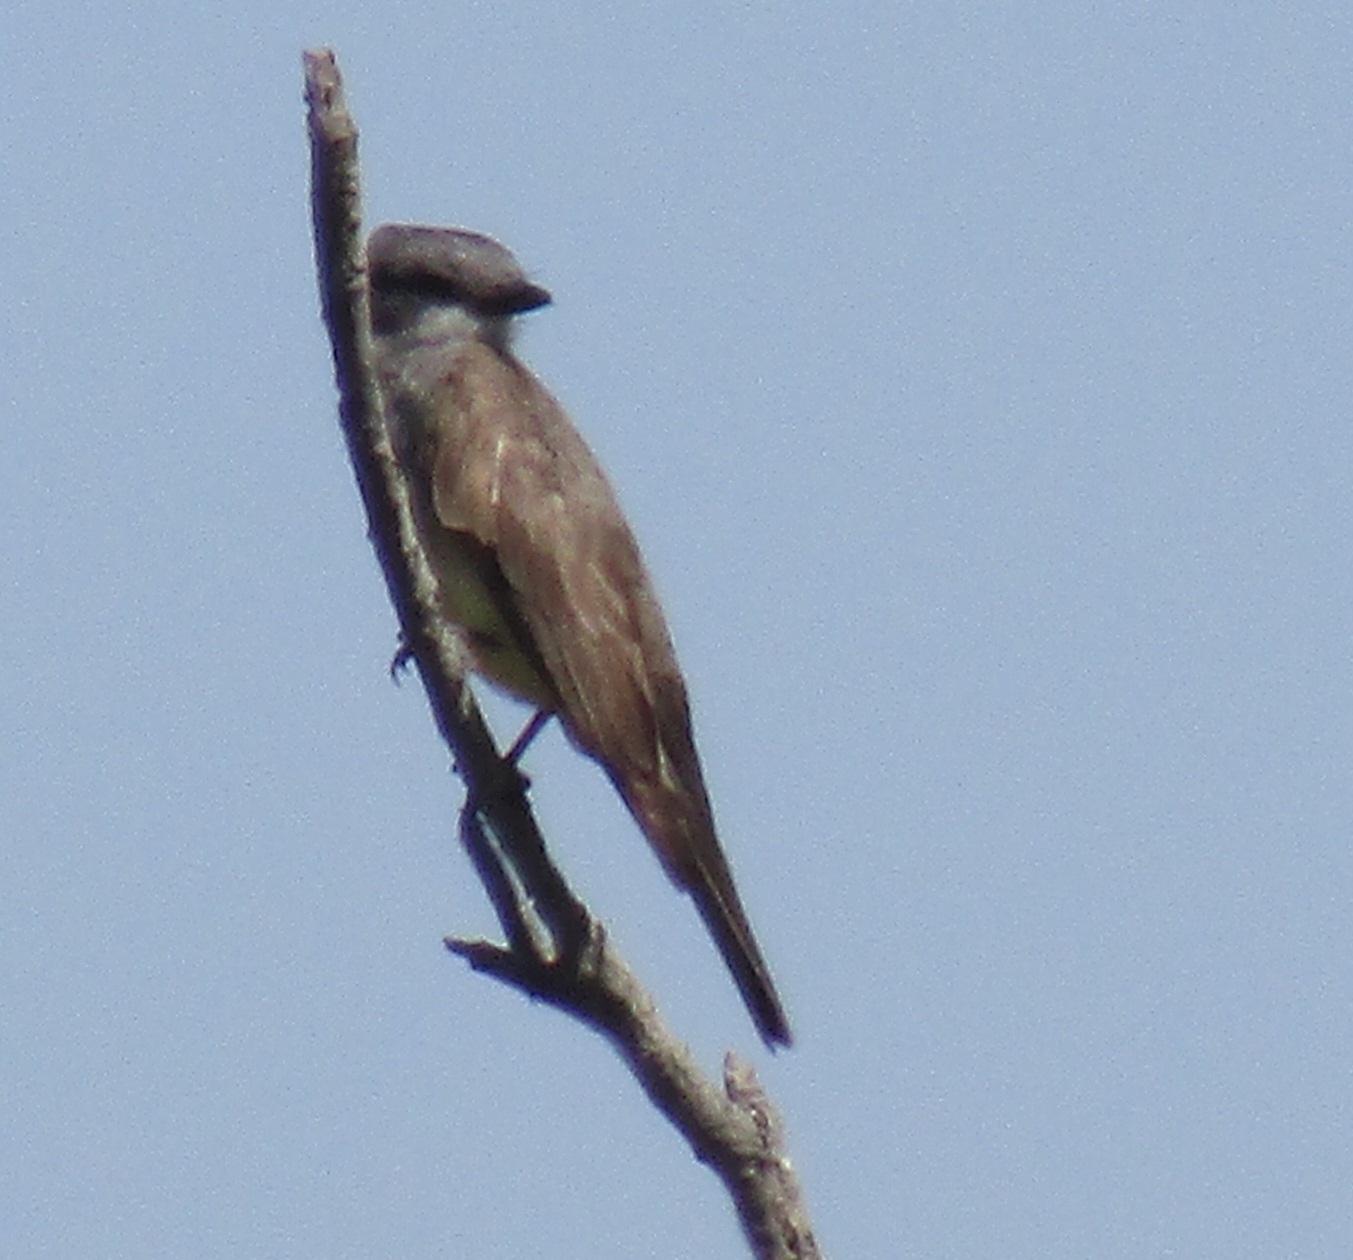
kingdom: Animalia
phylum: Chordata
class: Aves
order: Passeriformes
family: Tyrannidae
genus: Tyrannus
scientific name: Tyrannus vociferans
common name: Cassin's kingbird
